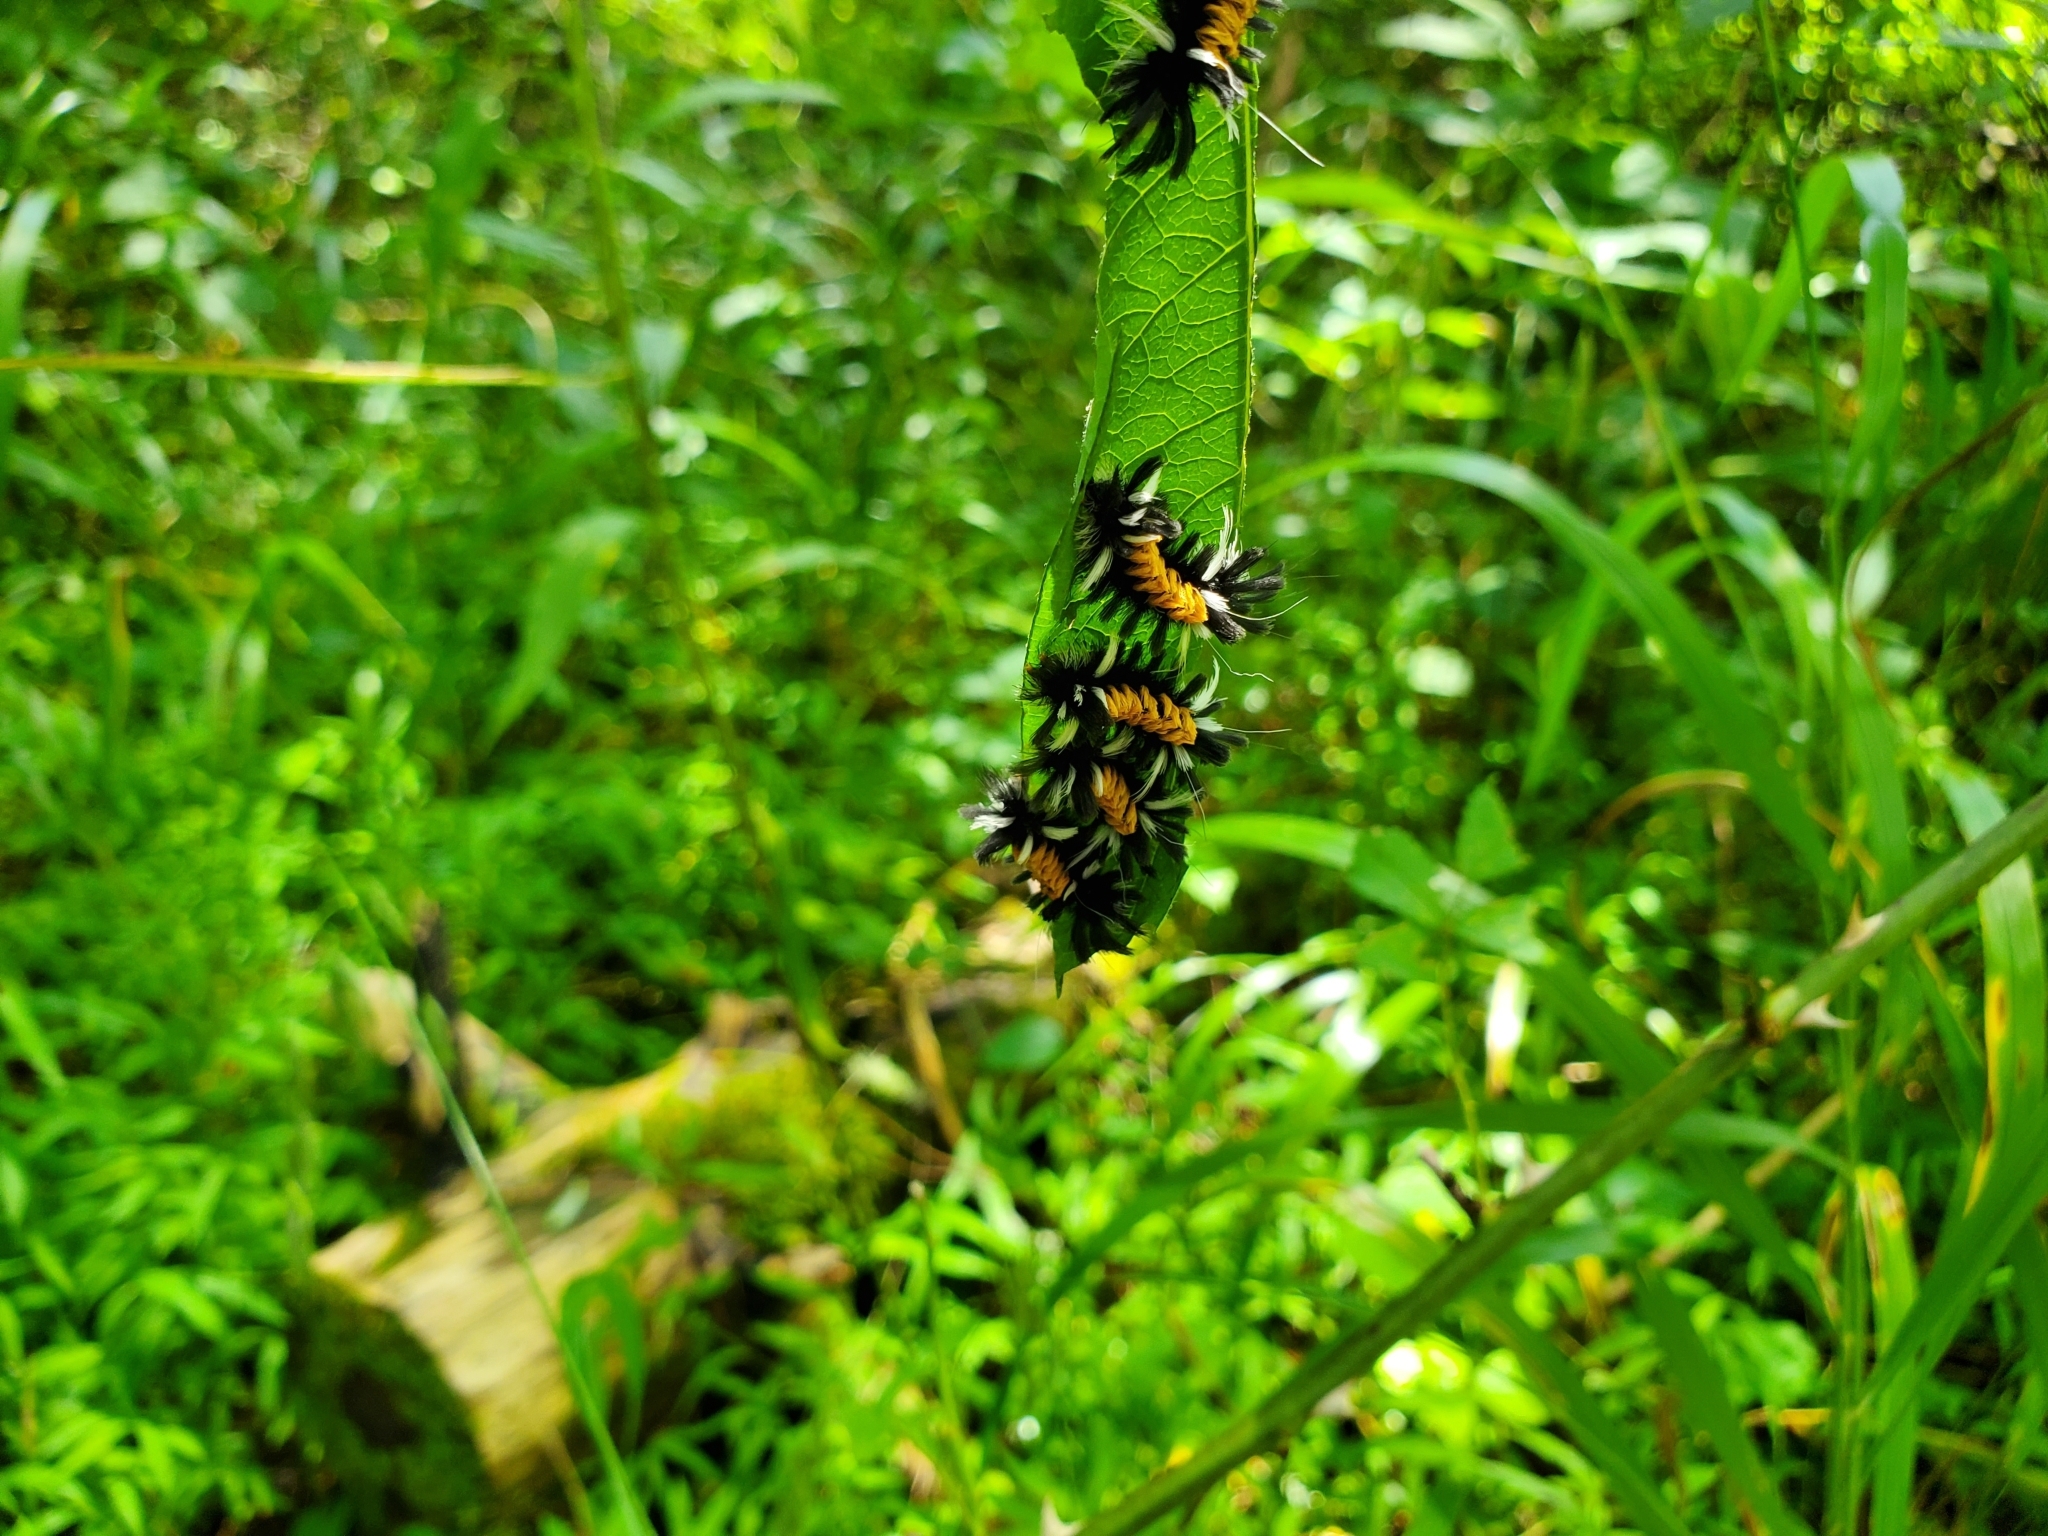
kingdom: Animalia
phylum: Arthropoda
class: Insecta
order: Lepidoptera
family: Erebidae
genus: Euchaetes
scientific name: Euchaetes egle
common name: Milkweed tussock moth
